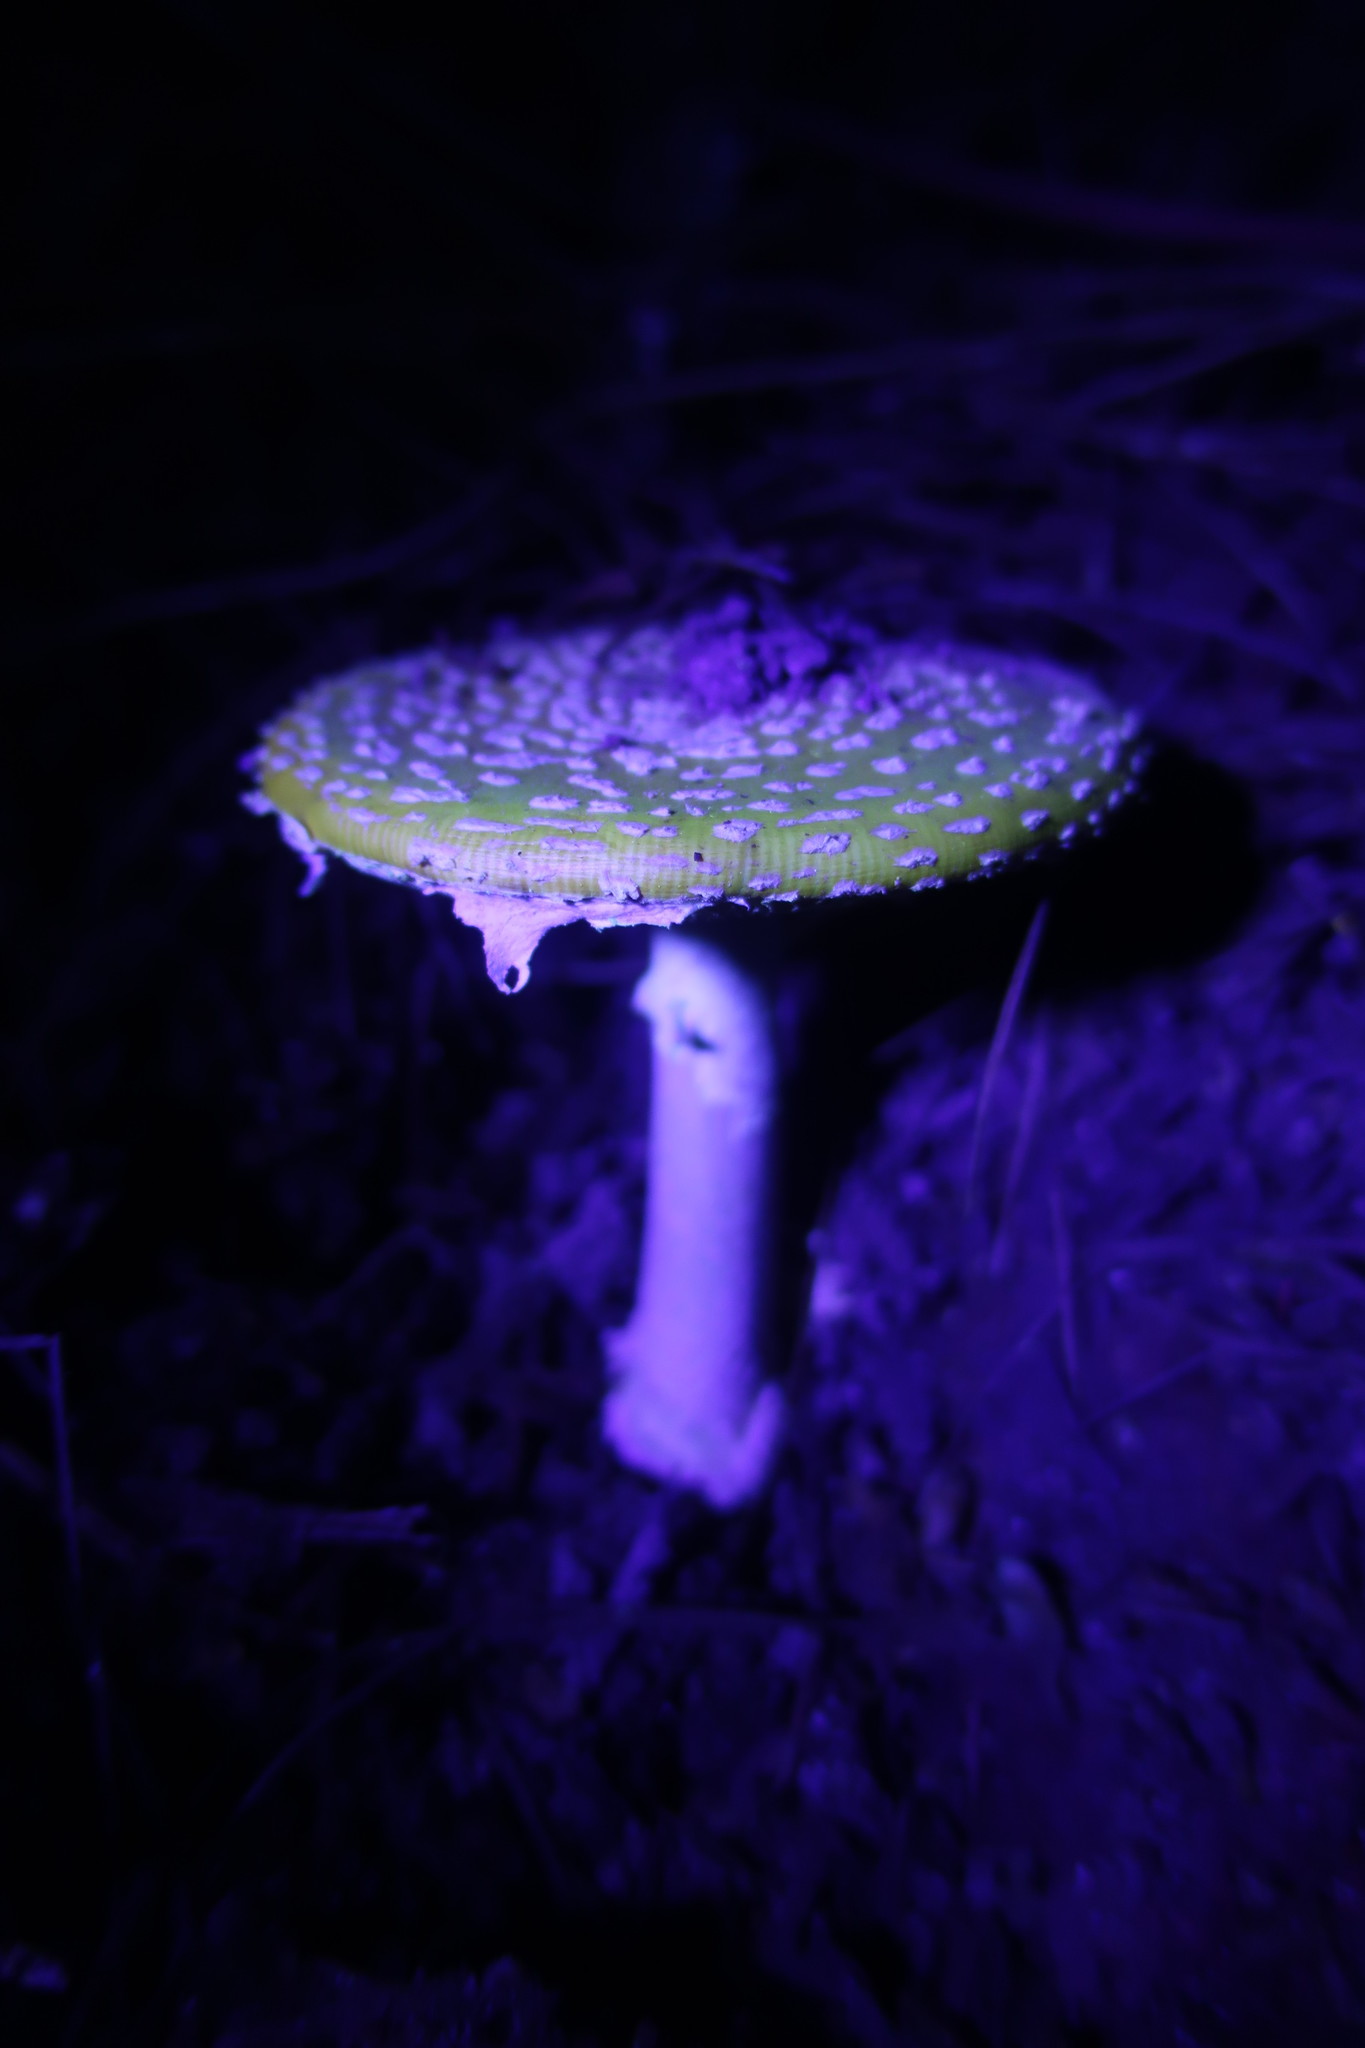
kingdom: Fungi
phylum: Basidiomycota
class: Agaricomycetes
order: Agaricales
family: Amanitaceae
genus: Amanita
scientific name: Amanita muscaria
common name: Fly agaric
